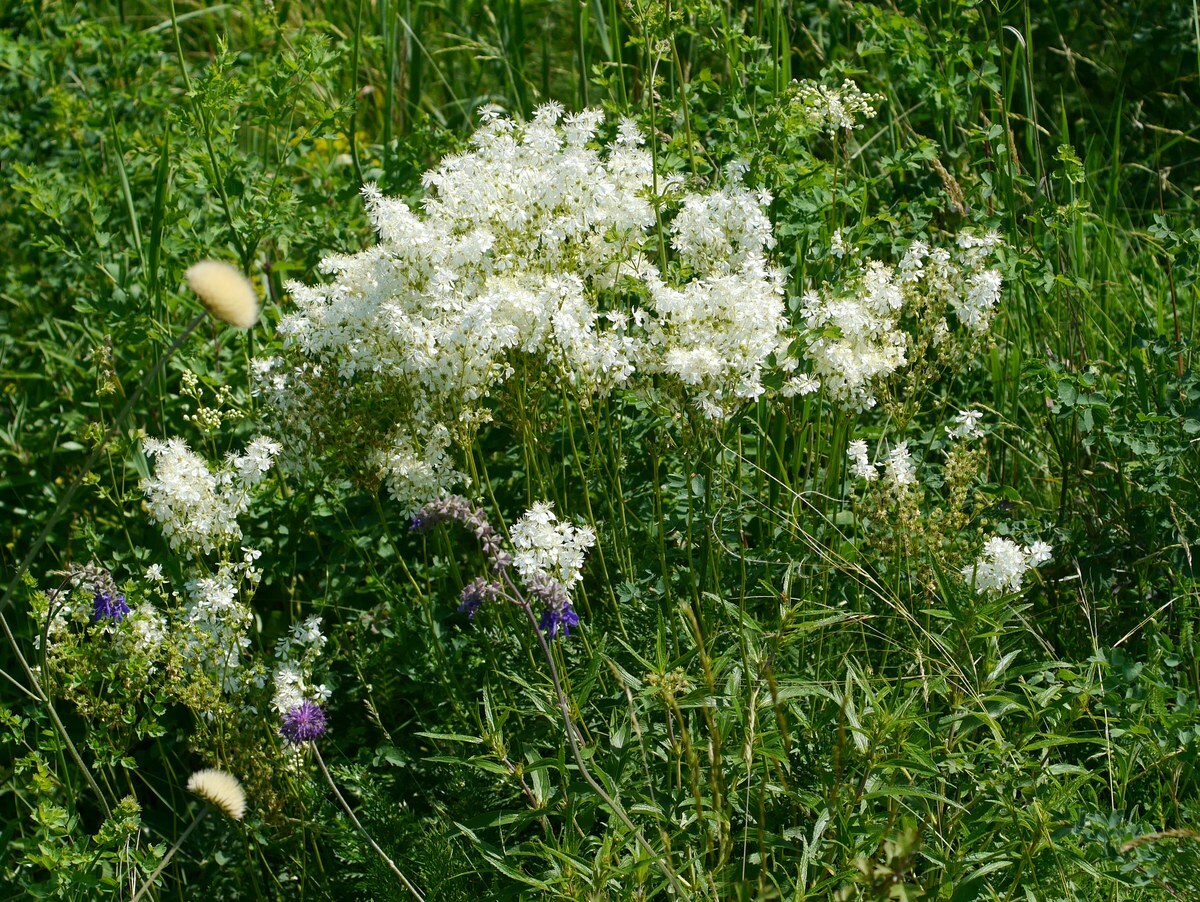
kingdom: Plantae
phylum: Tracheophyta
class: Magnoliopsida
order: Rosales
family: Rosaceae
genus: Filipendula
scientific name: Filipendula vulgaris
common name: Dropwort
